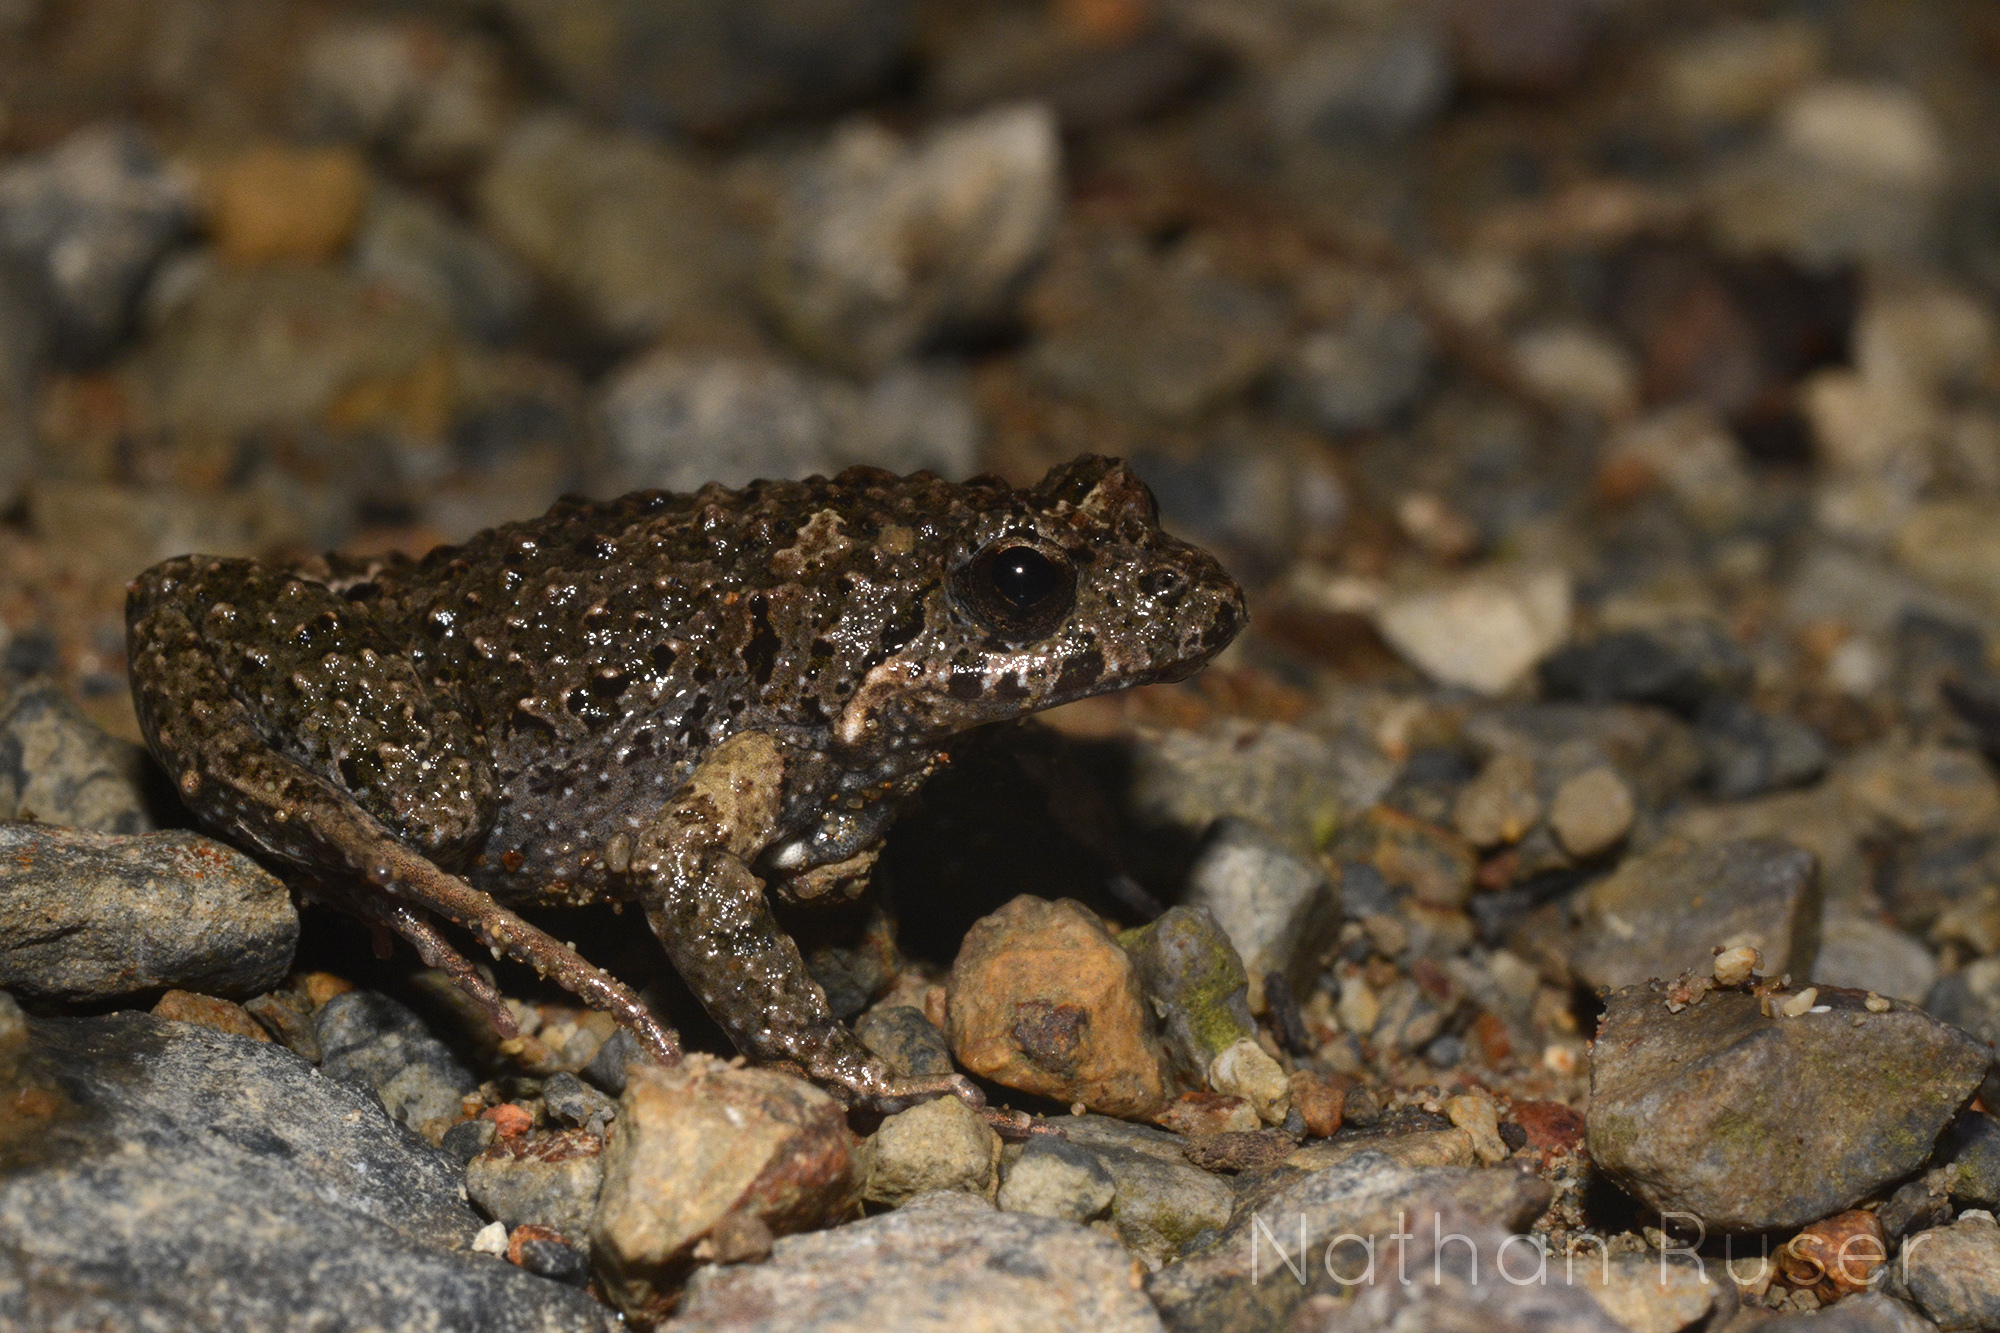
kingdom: Animalia
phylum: Chordata
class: Amphibia
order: Anura
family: Myobatrachidae
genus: Crinia
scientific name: Crinia signifera
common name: Brown froglet
